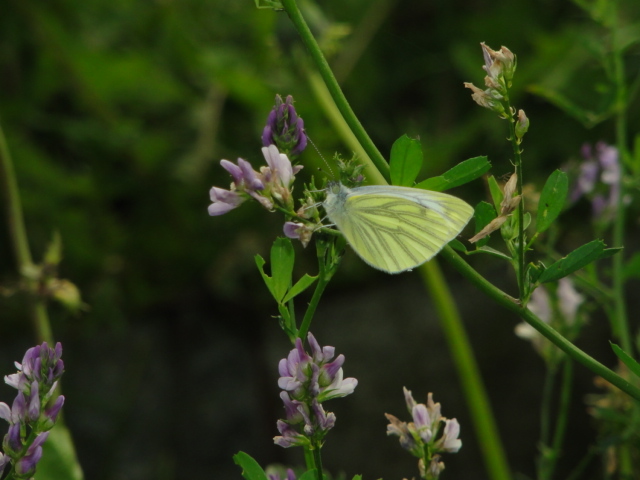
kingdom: Animalia
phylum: Arthropoda
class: Insecta
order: Lepidoptera
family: Pieridae
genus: Pieris
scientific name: Pieris napi
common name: Green-veined white
